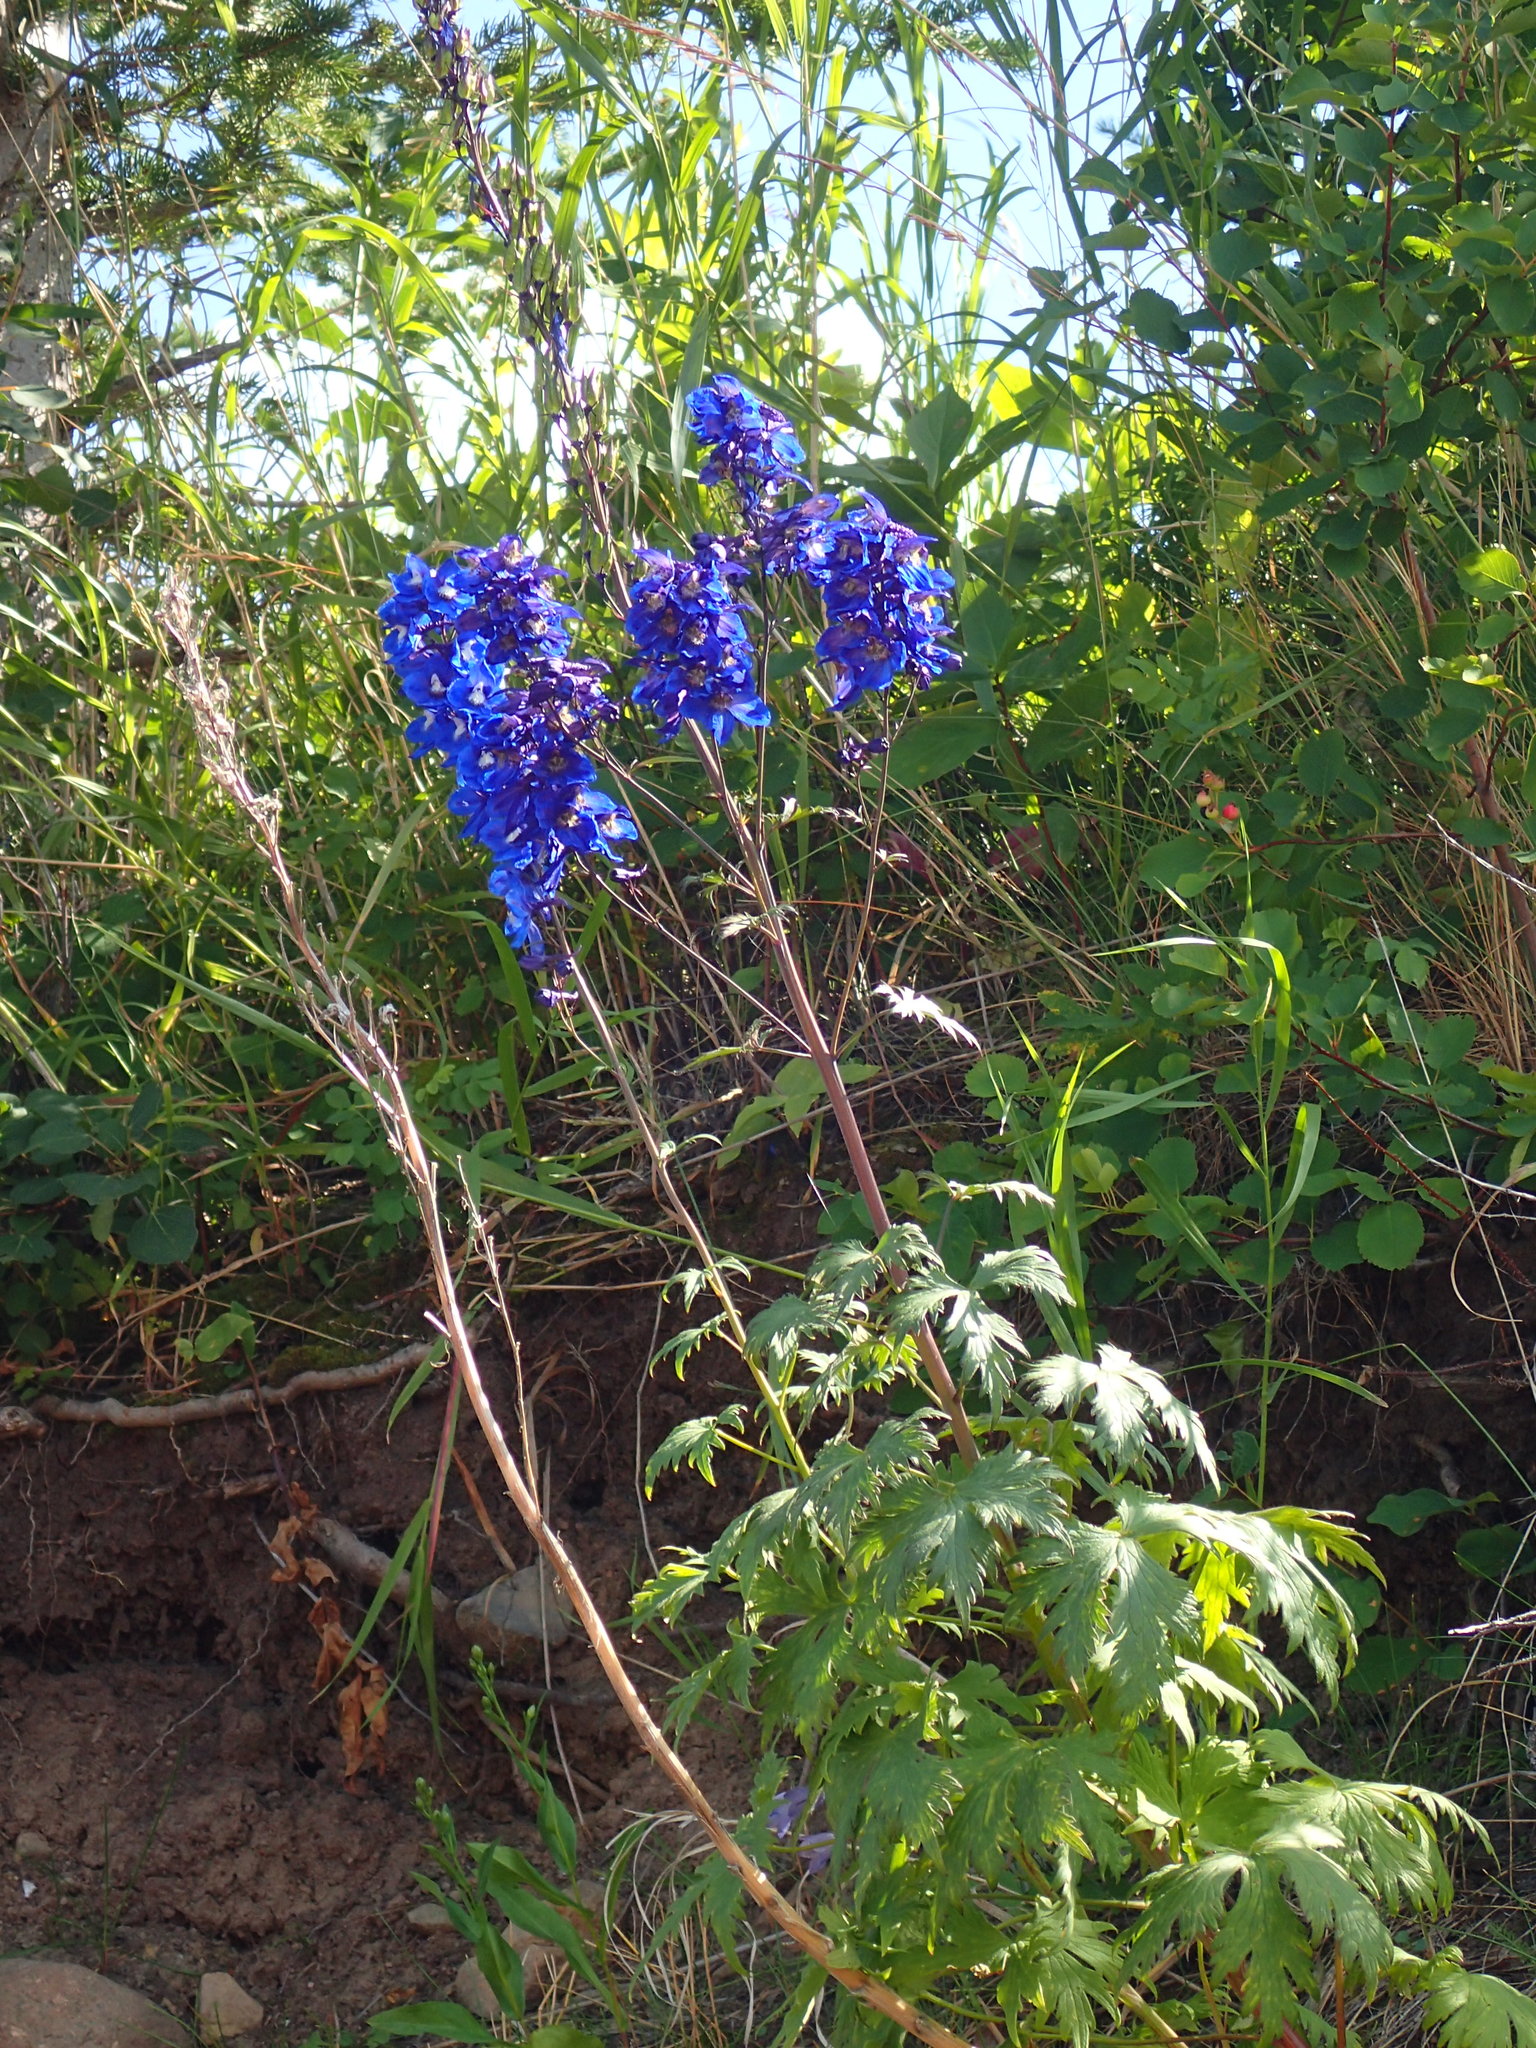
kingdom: Plantae
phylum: Tracheophyta
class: Magnoliopsida
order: Ranunculales
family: Ranunculaceae
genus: Delphinium
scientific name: Delphinium cultorum
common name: Garden delphinium
